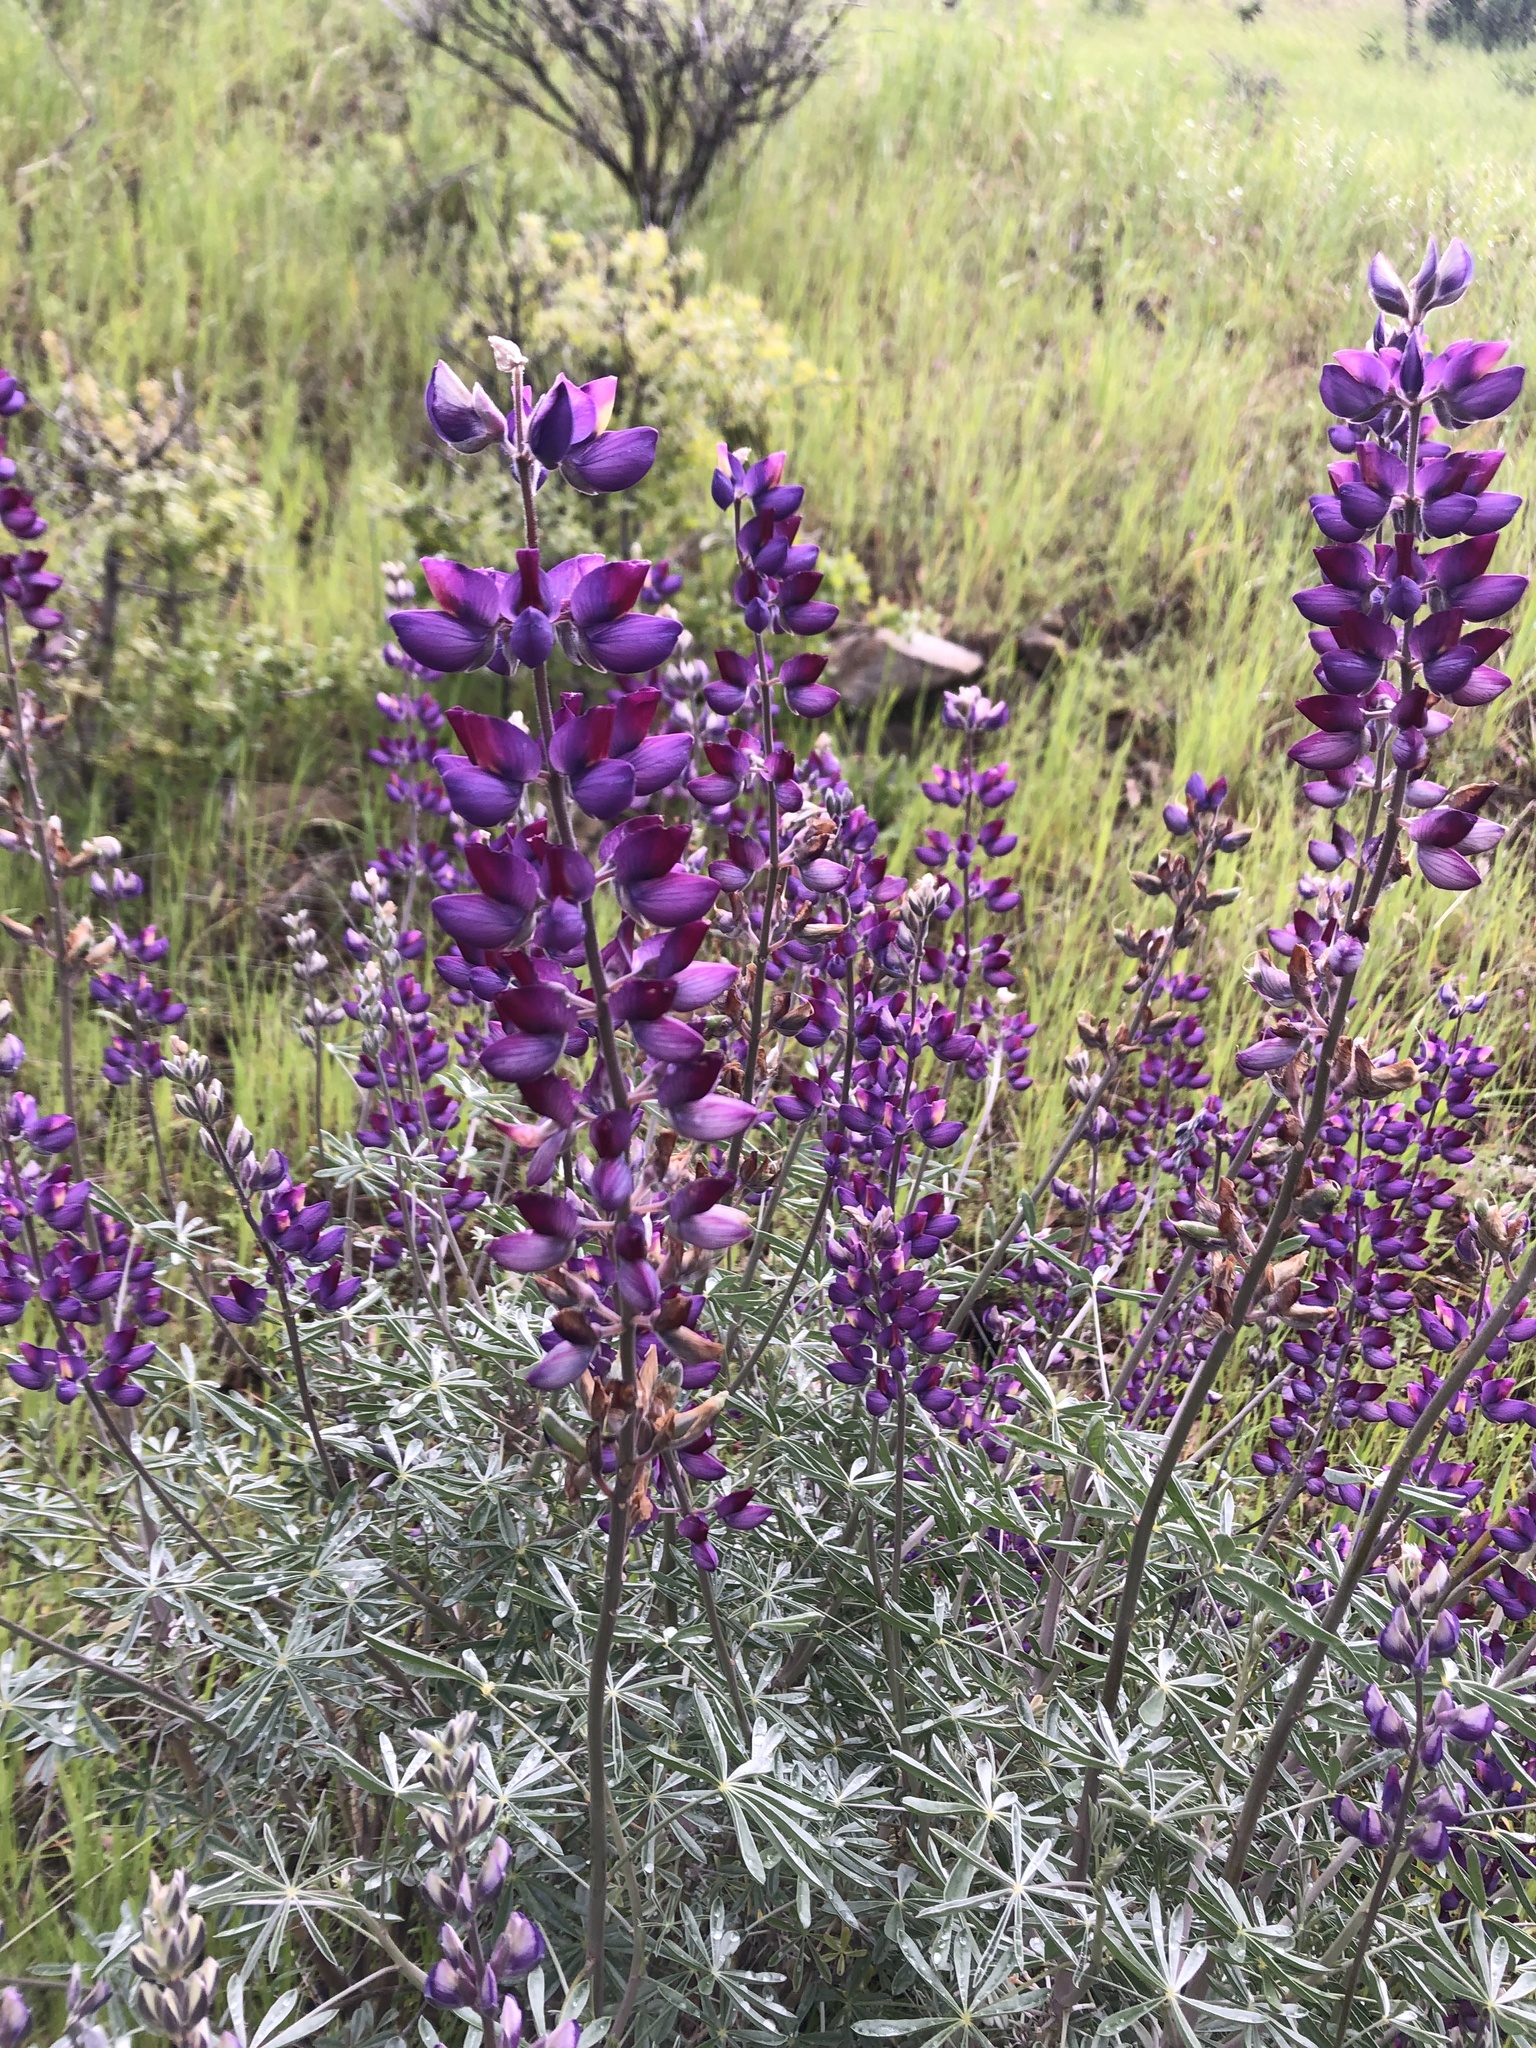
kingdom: Plantae
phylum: Tracheophyta
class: Magnoliopsida
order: Fabales
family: Fabaceae
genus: Lupinus
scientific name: Lupinus albifrons
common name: Foothill lupine
